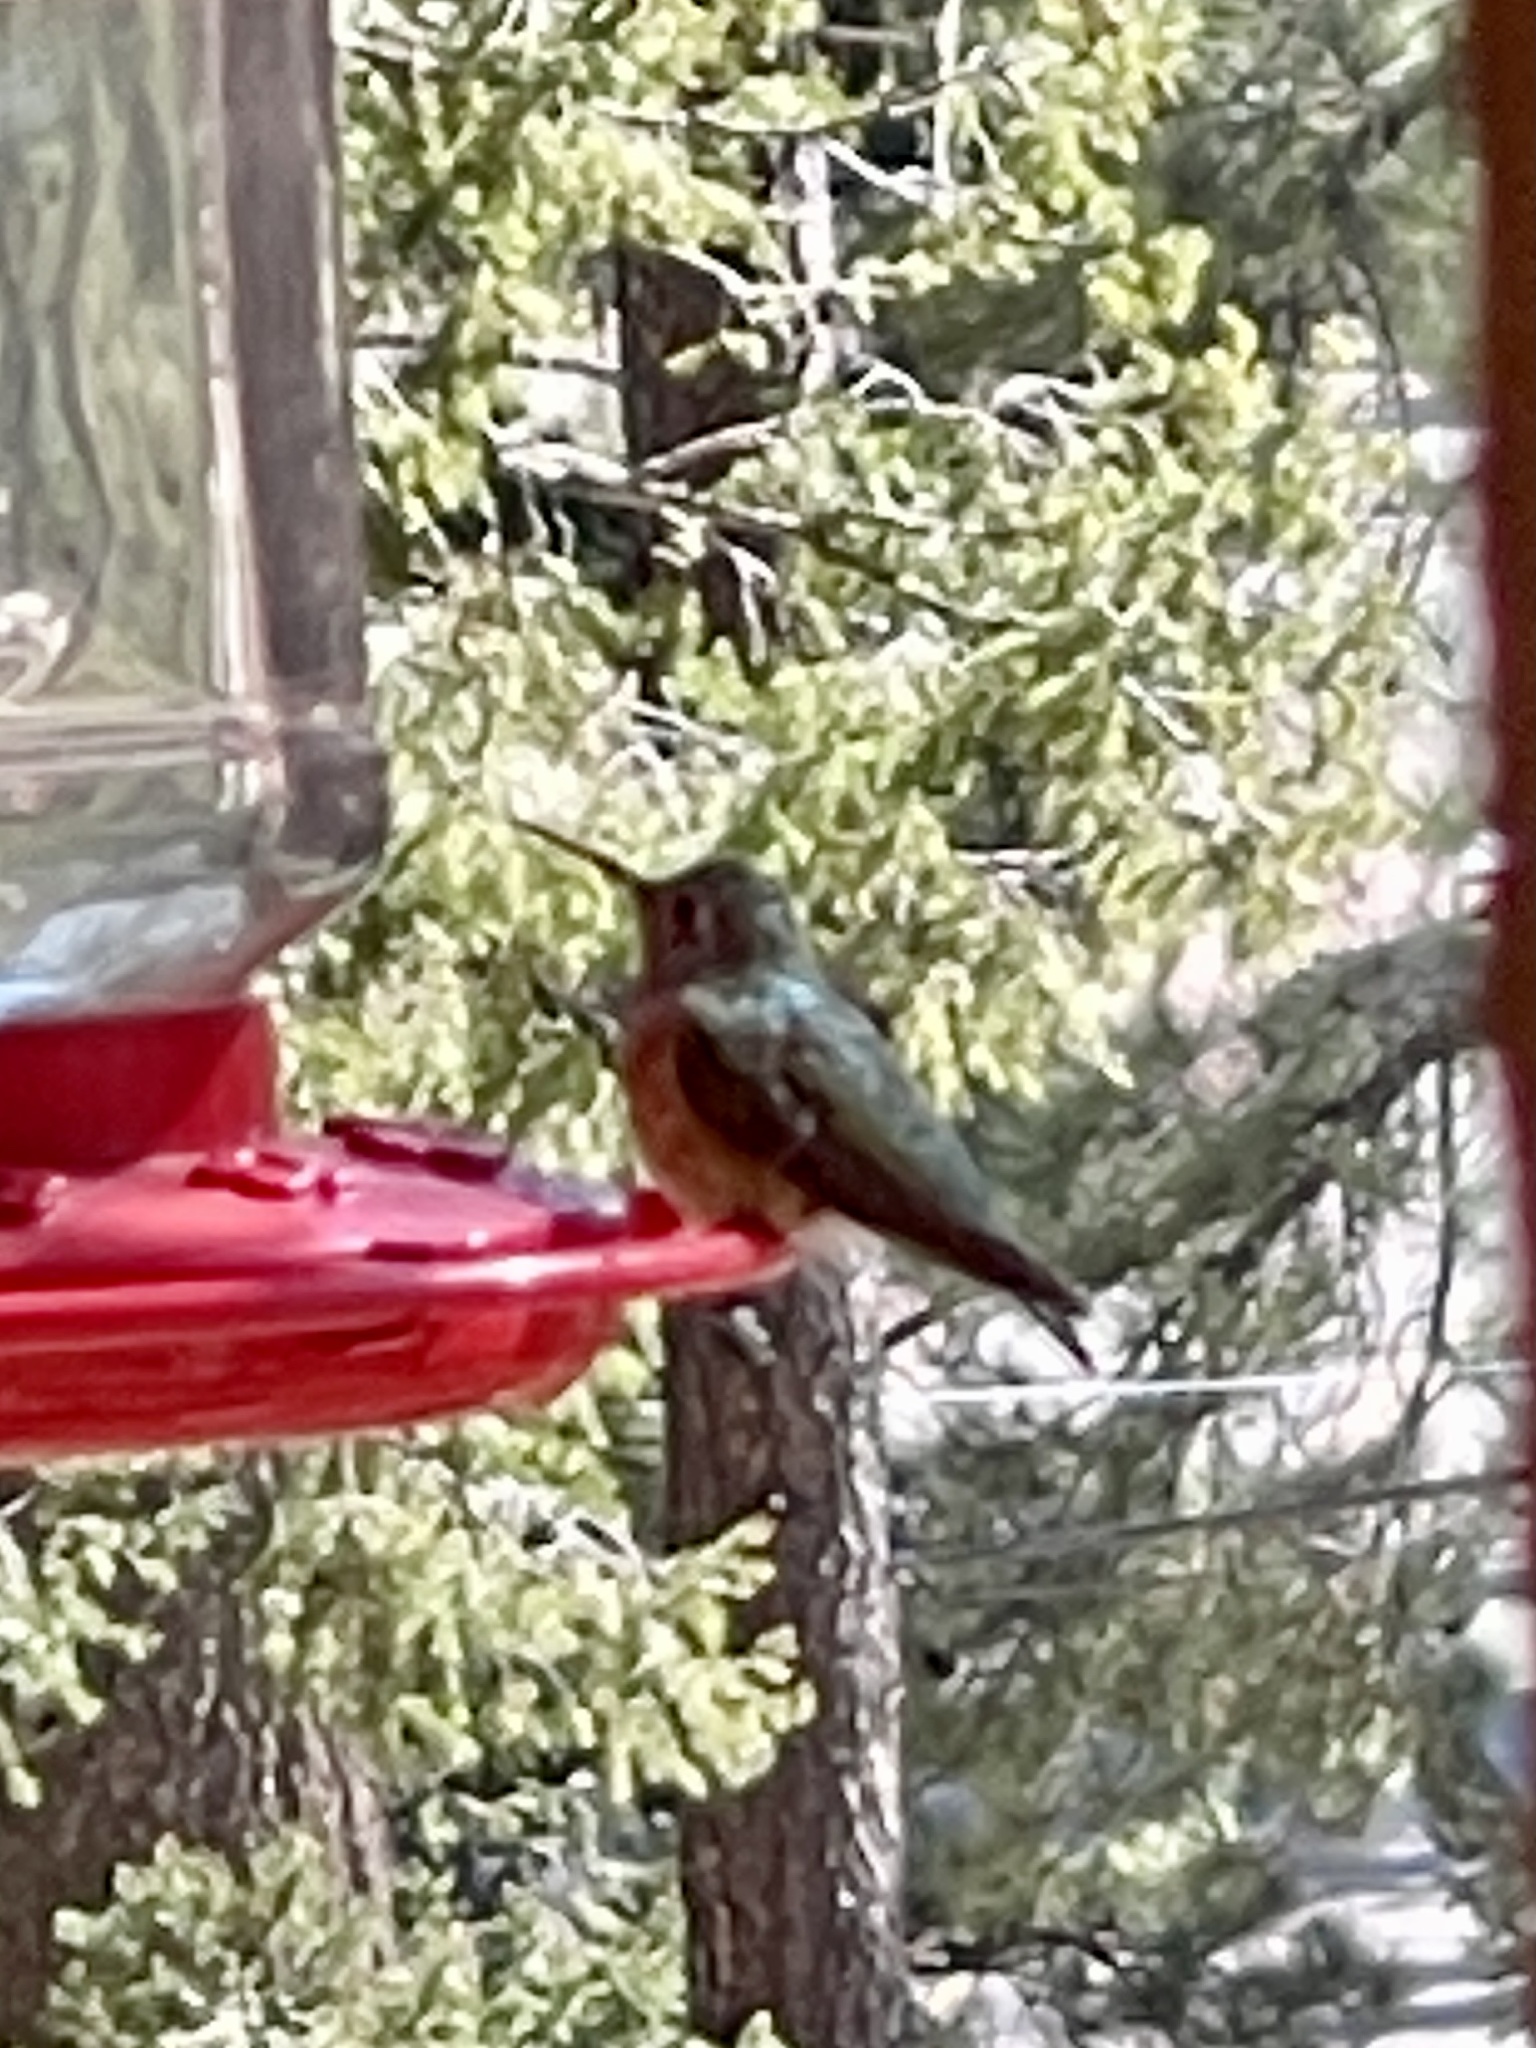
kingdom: Animalia
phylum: Chordata
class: Aves
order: Apodiformes
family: Trochilidae
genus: Selasphorus
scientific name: Selasphorus platycercus
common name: Broad-tailed hummingbird
